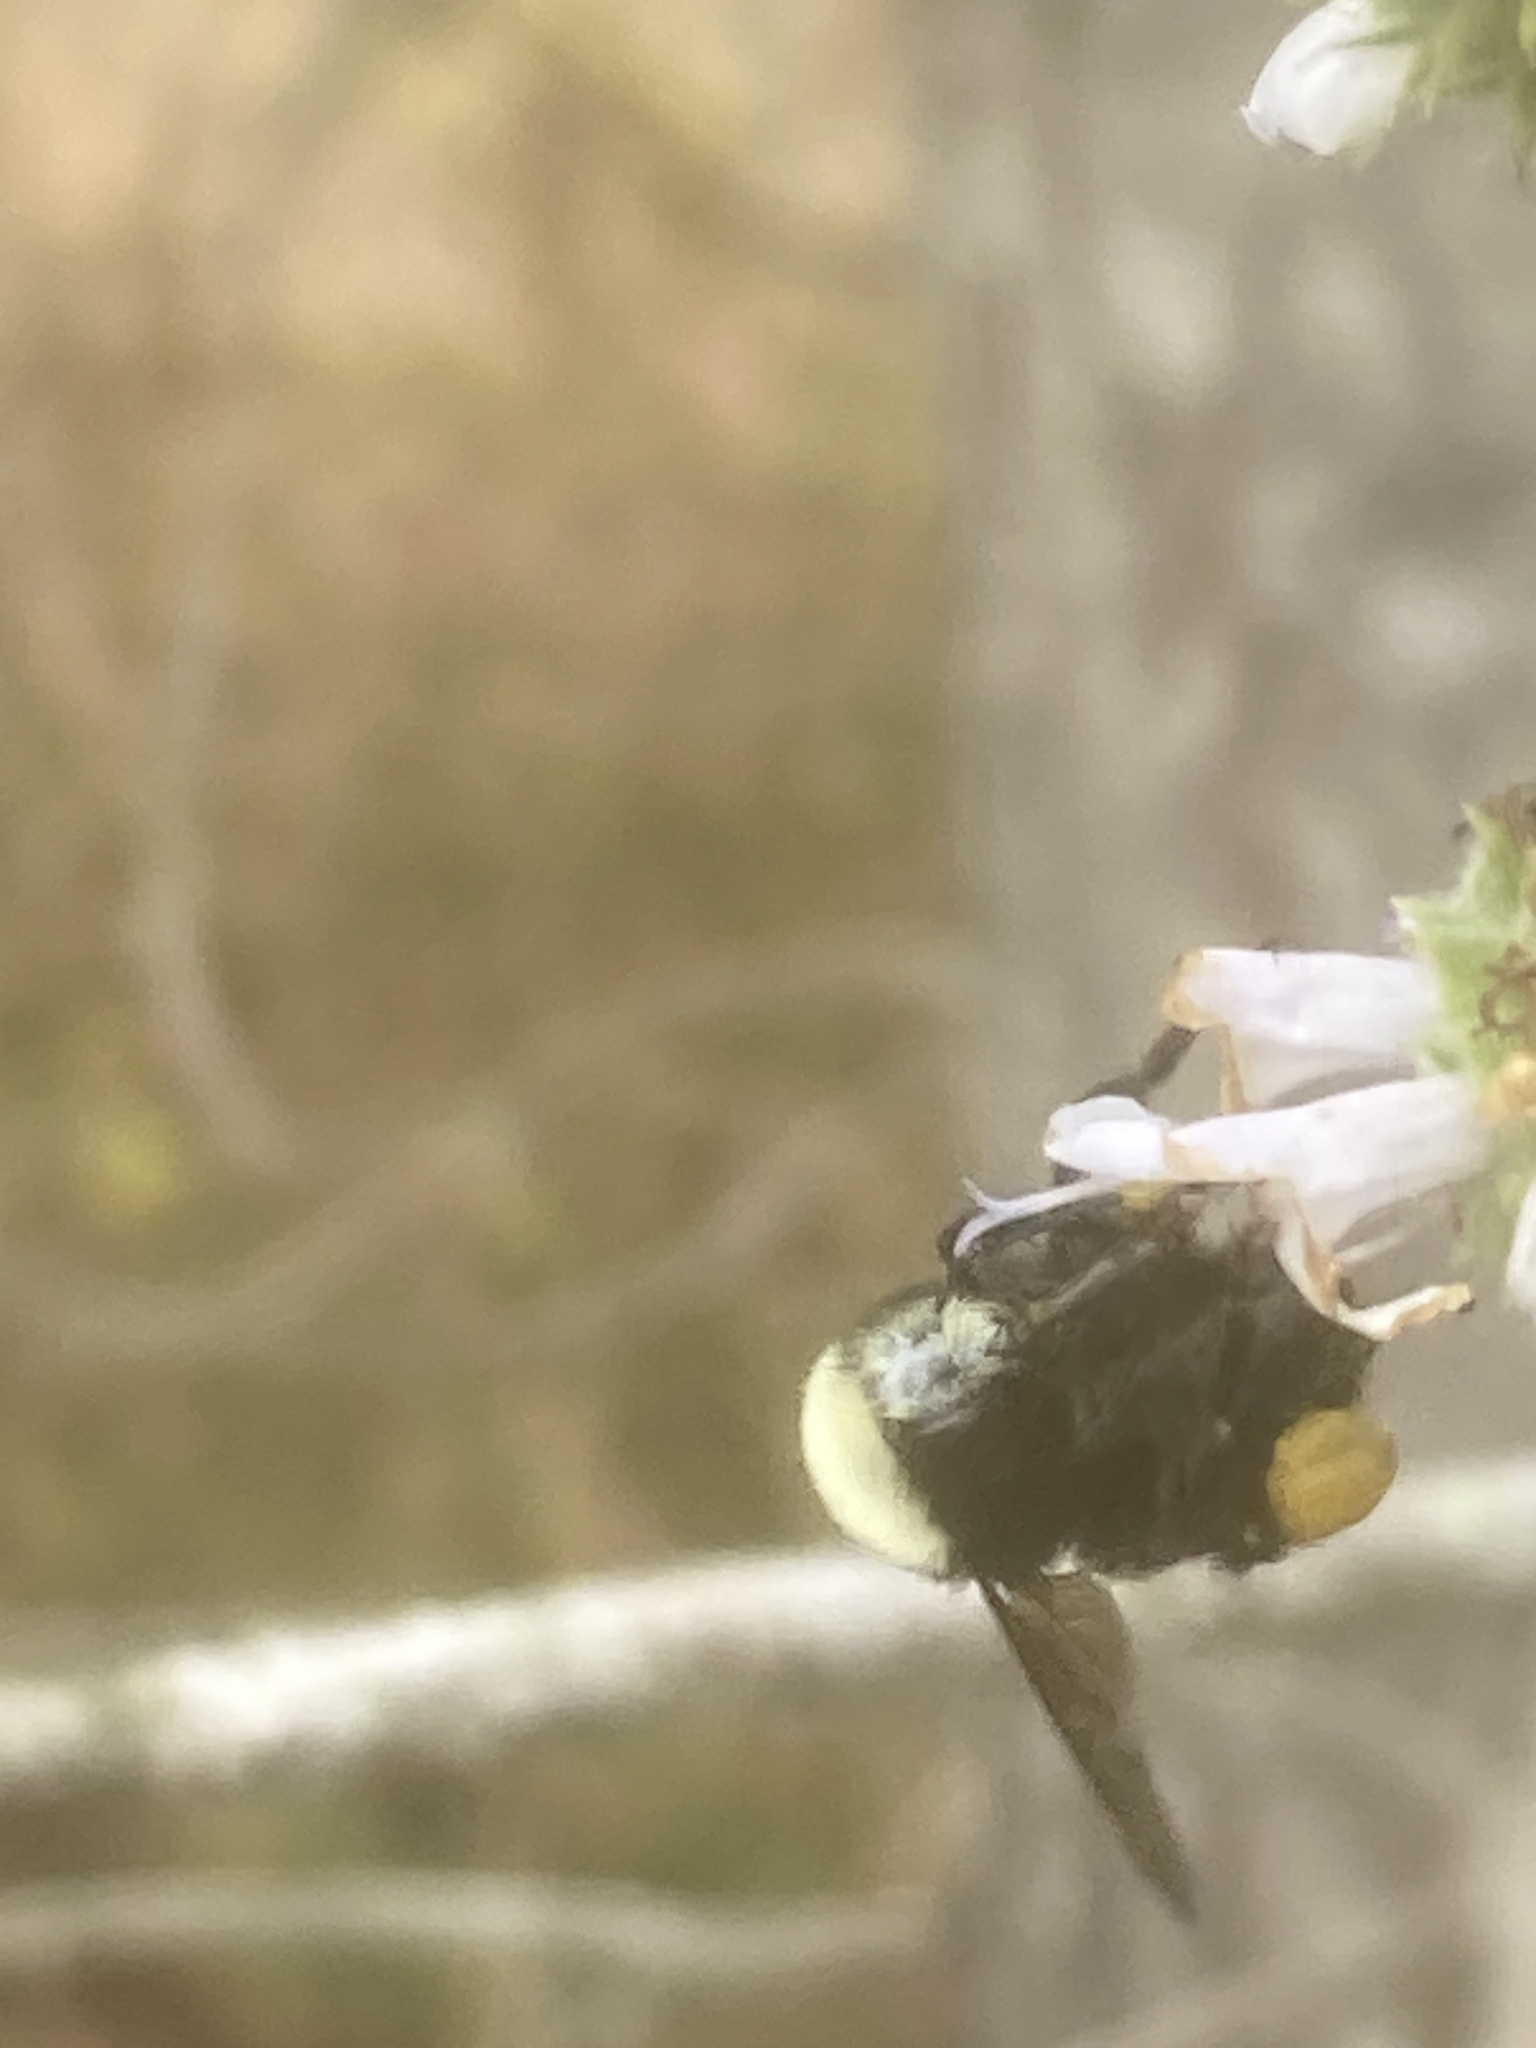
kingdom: Animalia
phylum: Arthropoda
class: Insecta
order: Hymenoptera
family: Apidae
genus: Bombus
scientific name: Bombus vosnesenskii
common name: Vosnesensky bumble bee
